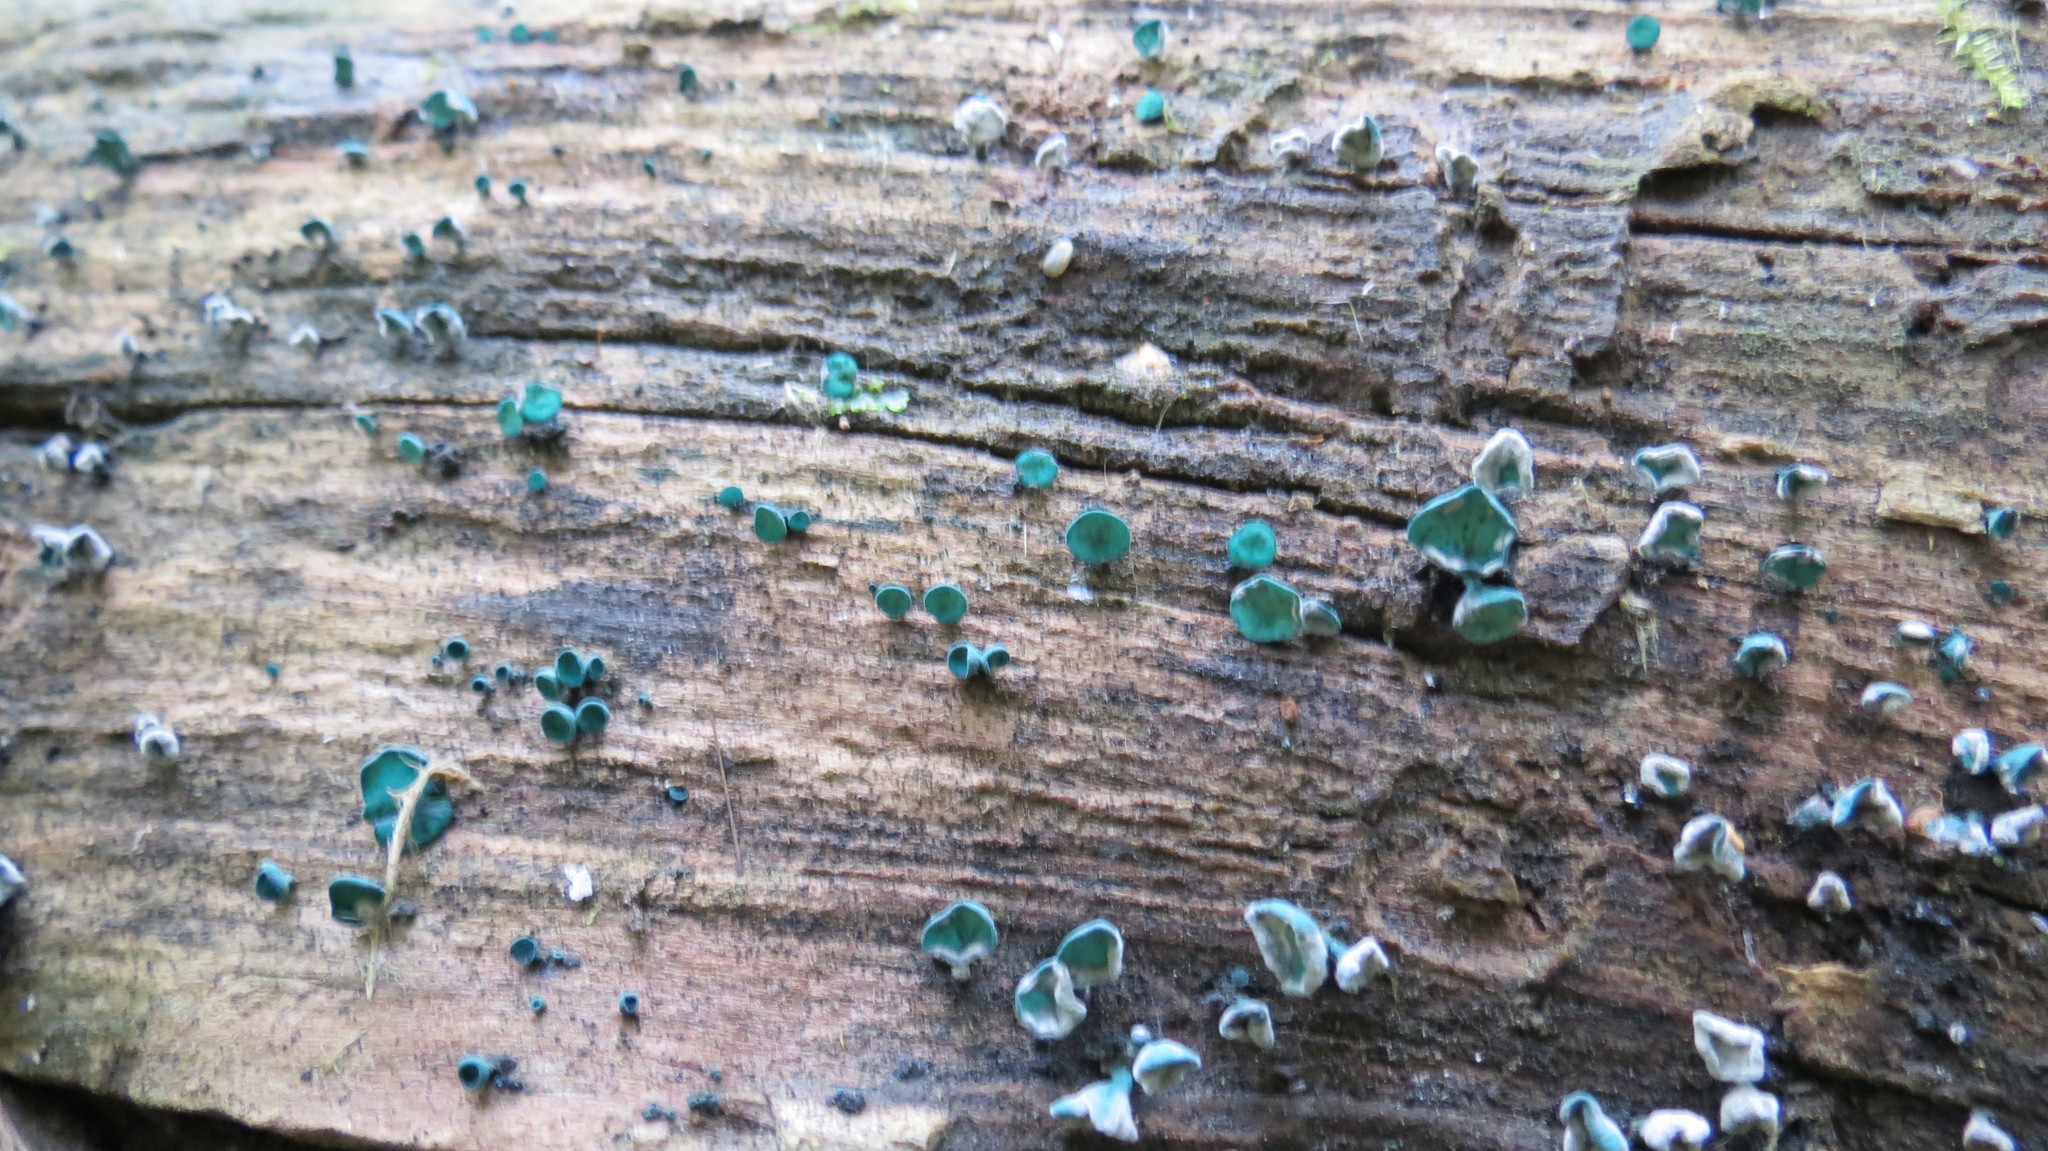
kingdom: Fungi
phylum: Ascomycota
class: Leotiomycetes
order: Helotiales
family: Chlorociboriaceae
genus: Chlorociboria
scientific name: Chlorociboria aeruginascens
